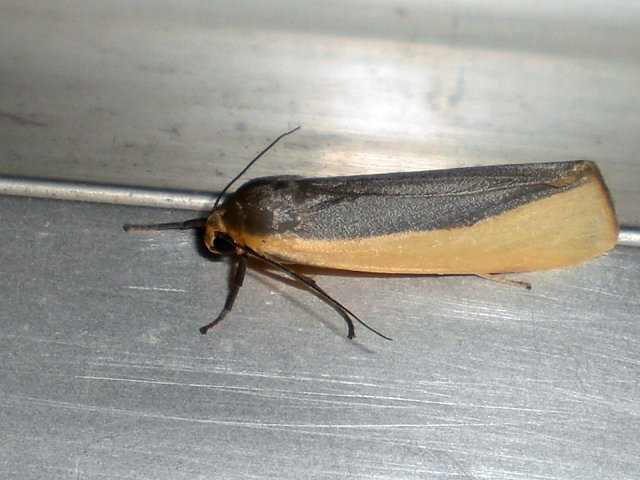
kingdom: Animalia
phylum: Arthropoda
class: Insecta
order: Lepidoptera
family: Erebidae
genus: Hesudra
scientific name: Hesudra divisa
